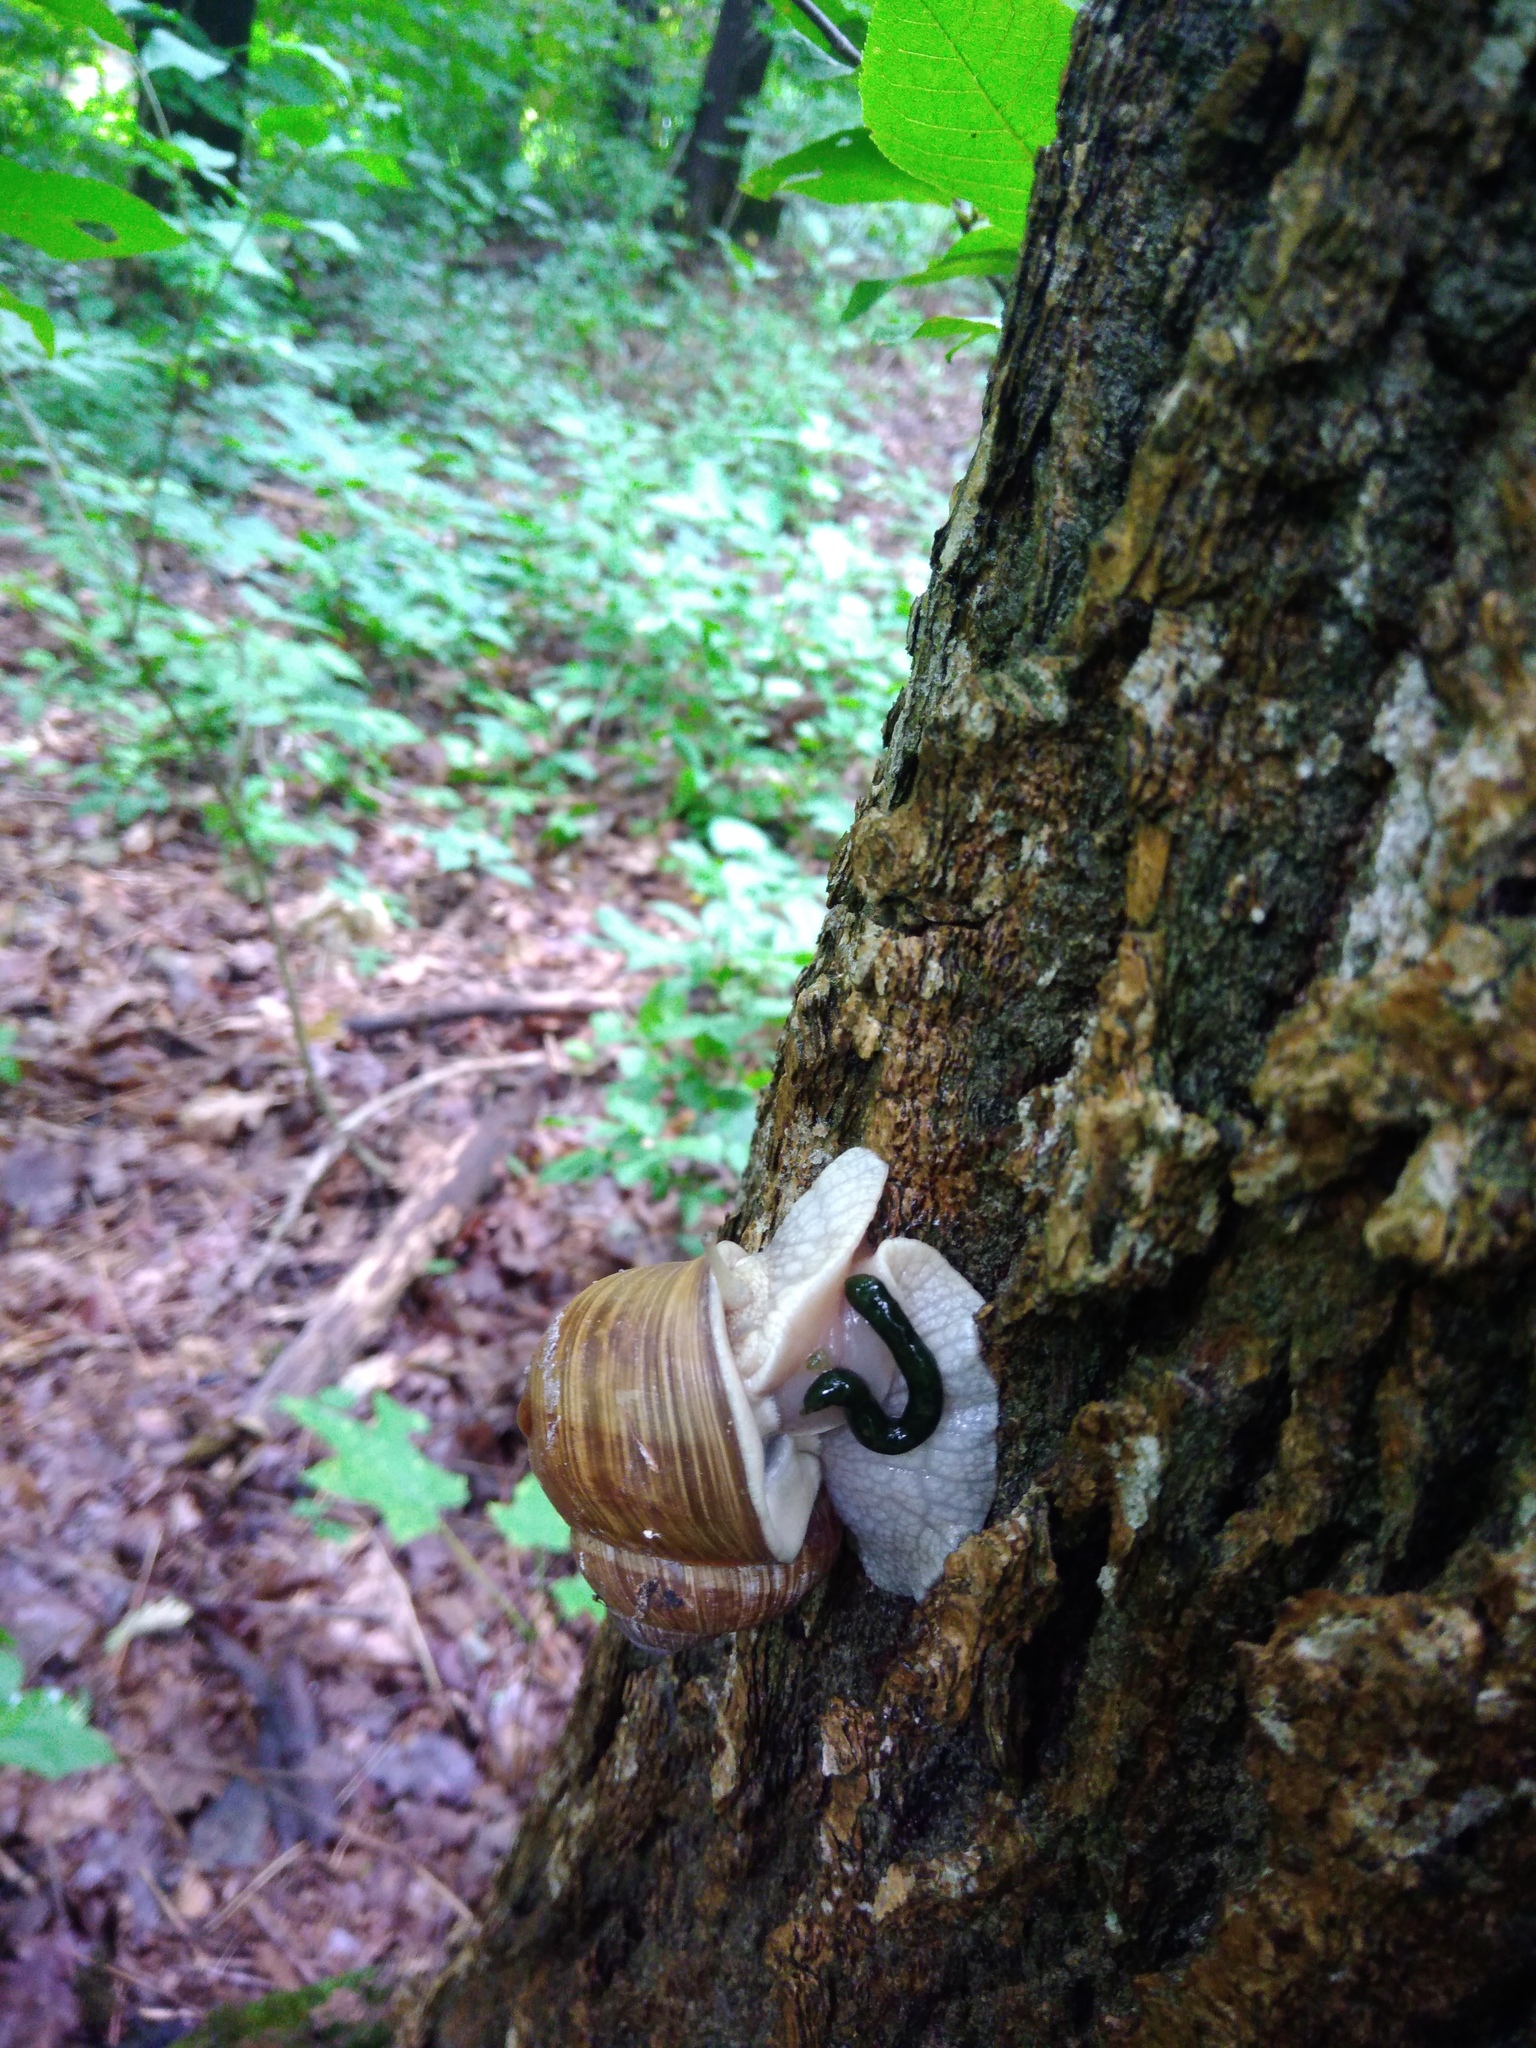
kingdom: Animalia
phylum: Mollusca
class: Gastropoda
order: Stylommatophora
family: Helicidae
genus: Helix
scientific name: Helix pomatia
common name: Roman snail
